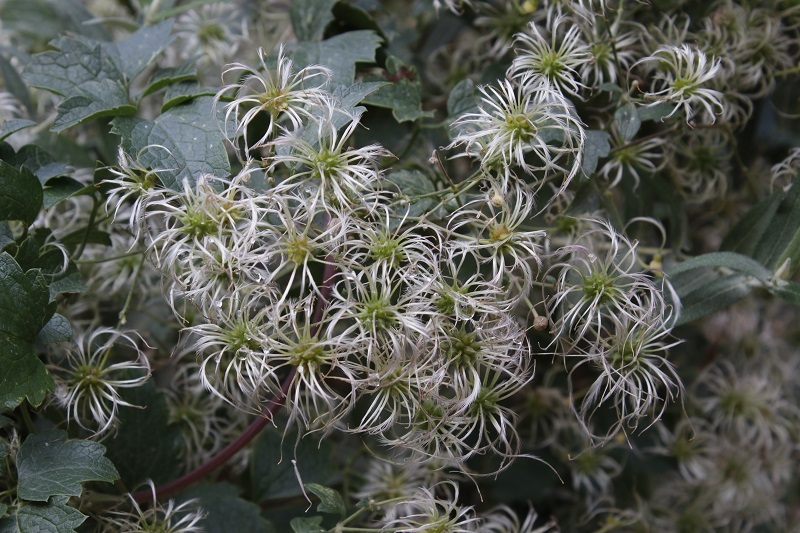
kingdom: Plantae
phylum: Tracheophyta
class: Magnoliopsida
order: Ranunculales
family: Ranunculaceae
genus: Clematis
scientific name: Clematis brachiata
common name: Traveler's-joy
